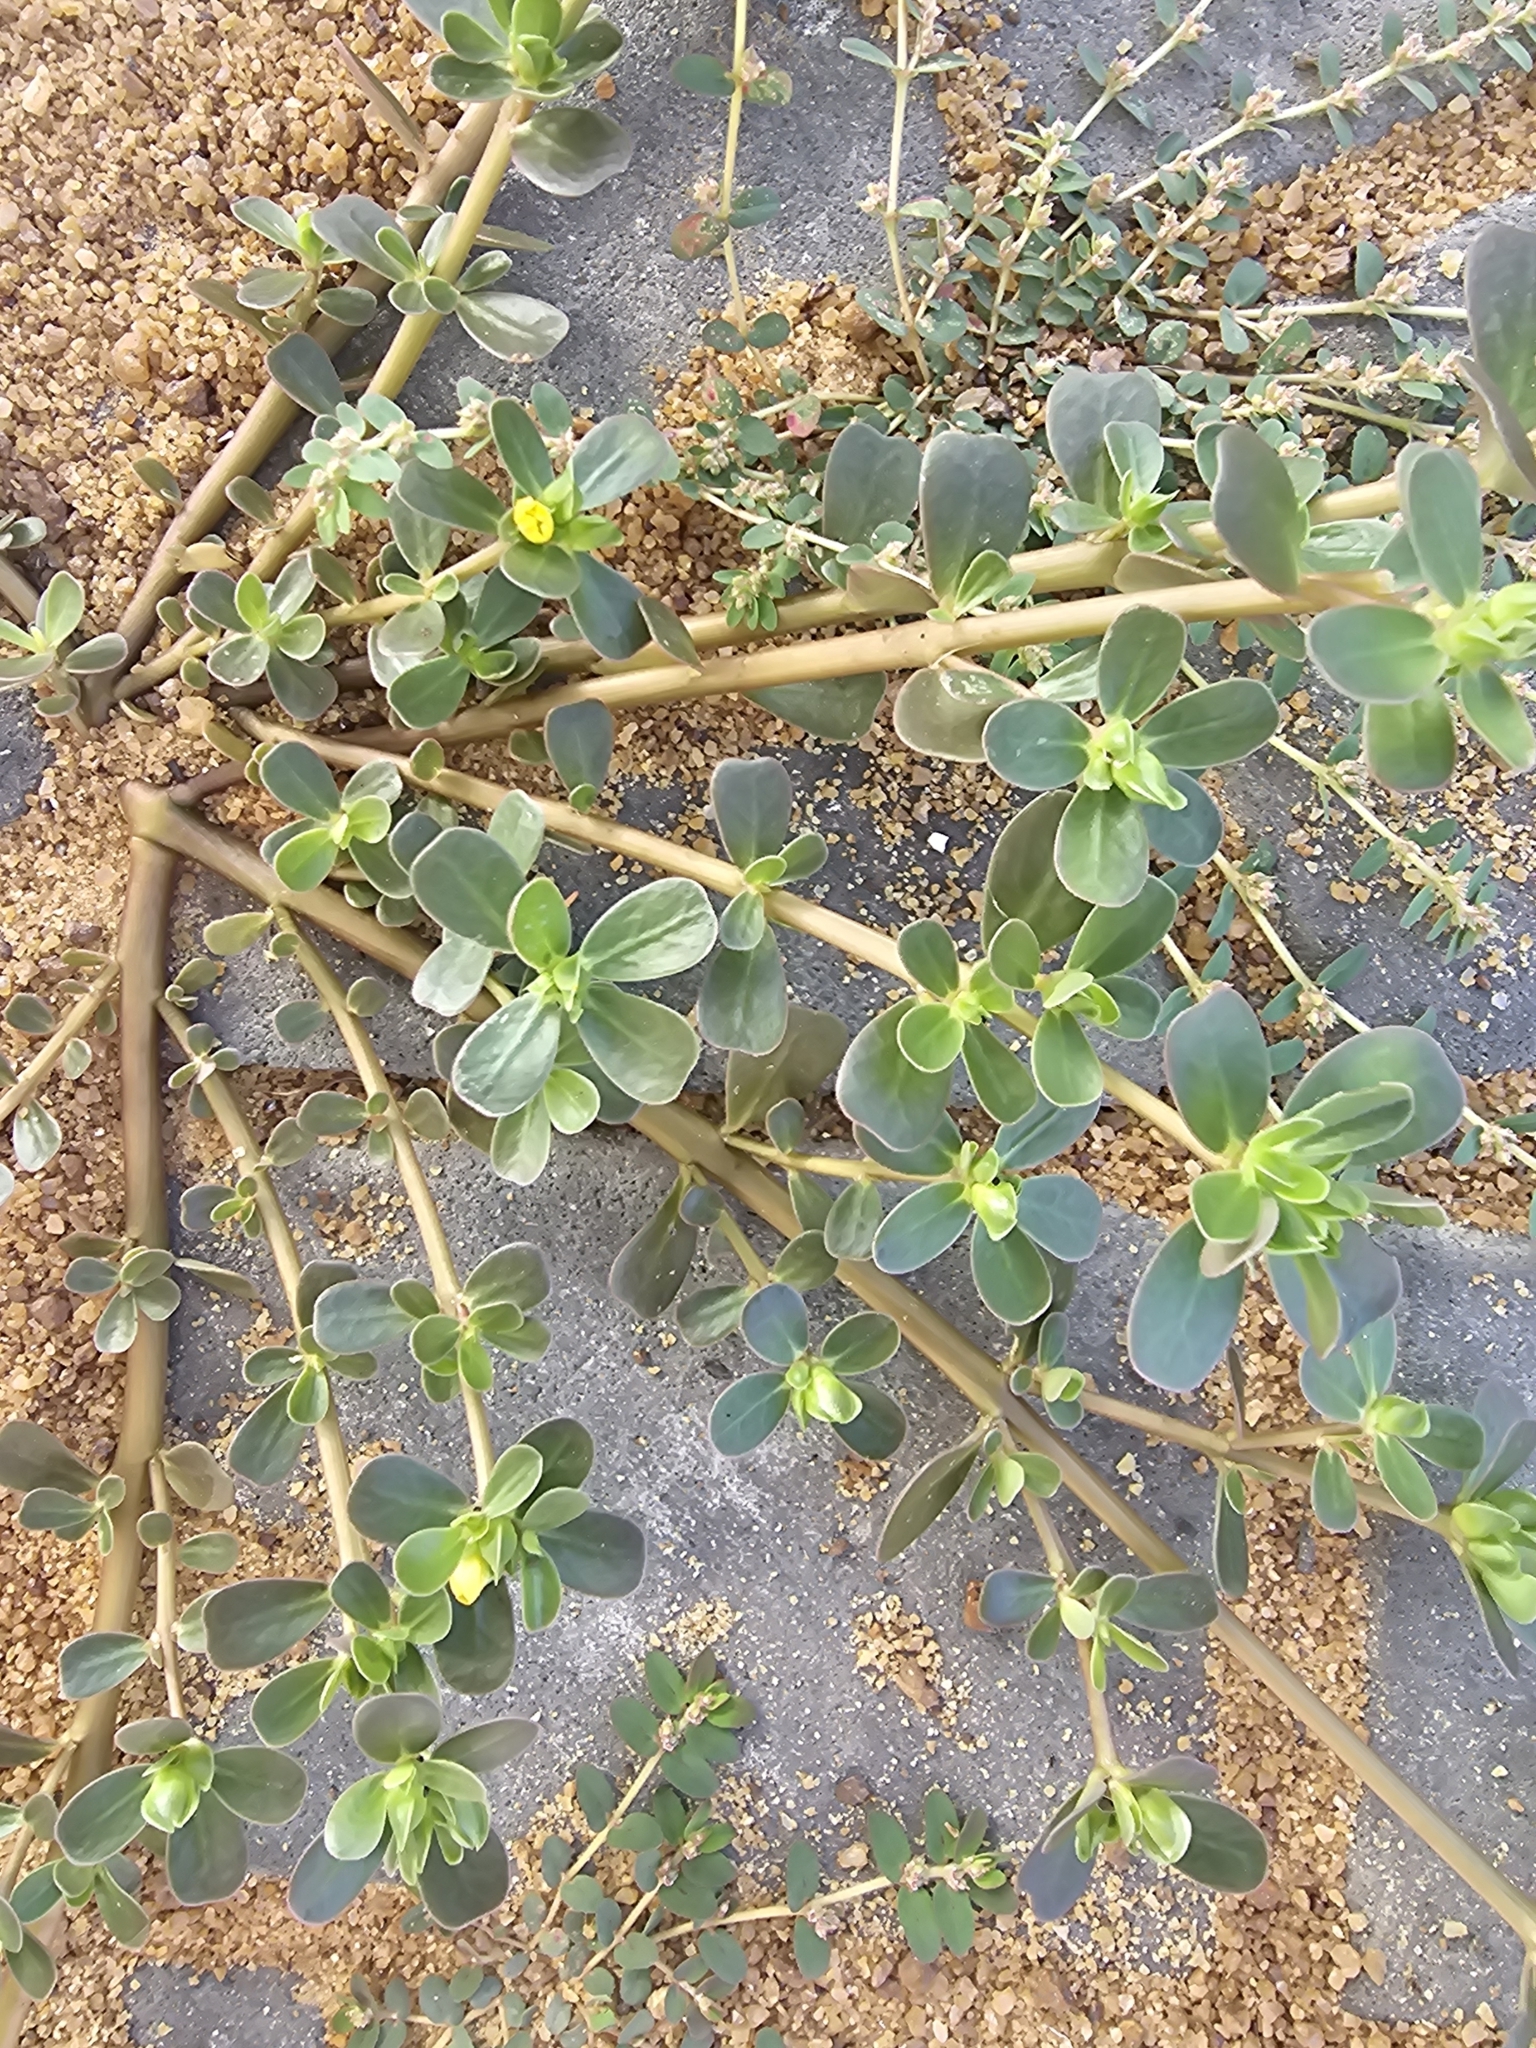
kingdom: Plantae
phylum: Tracheophyta
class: Magnoliopsida
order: Caryophyllales
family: Portulacaceae
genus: Portulaca
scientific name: Portulaca oleracea
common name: Common purslane
